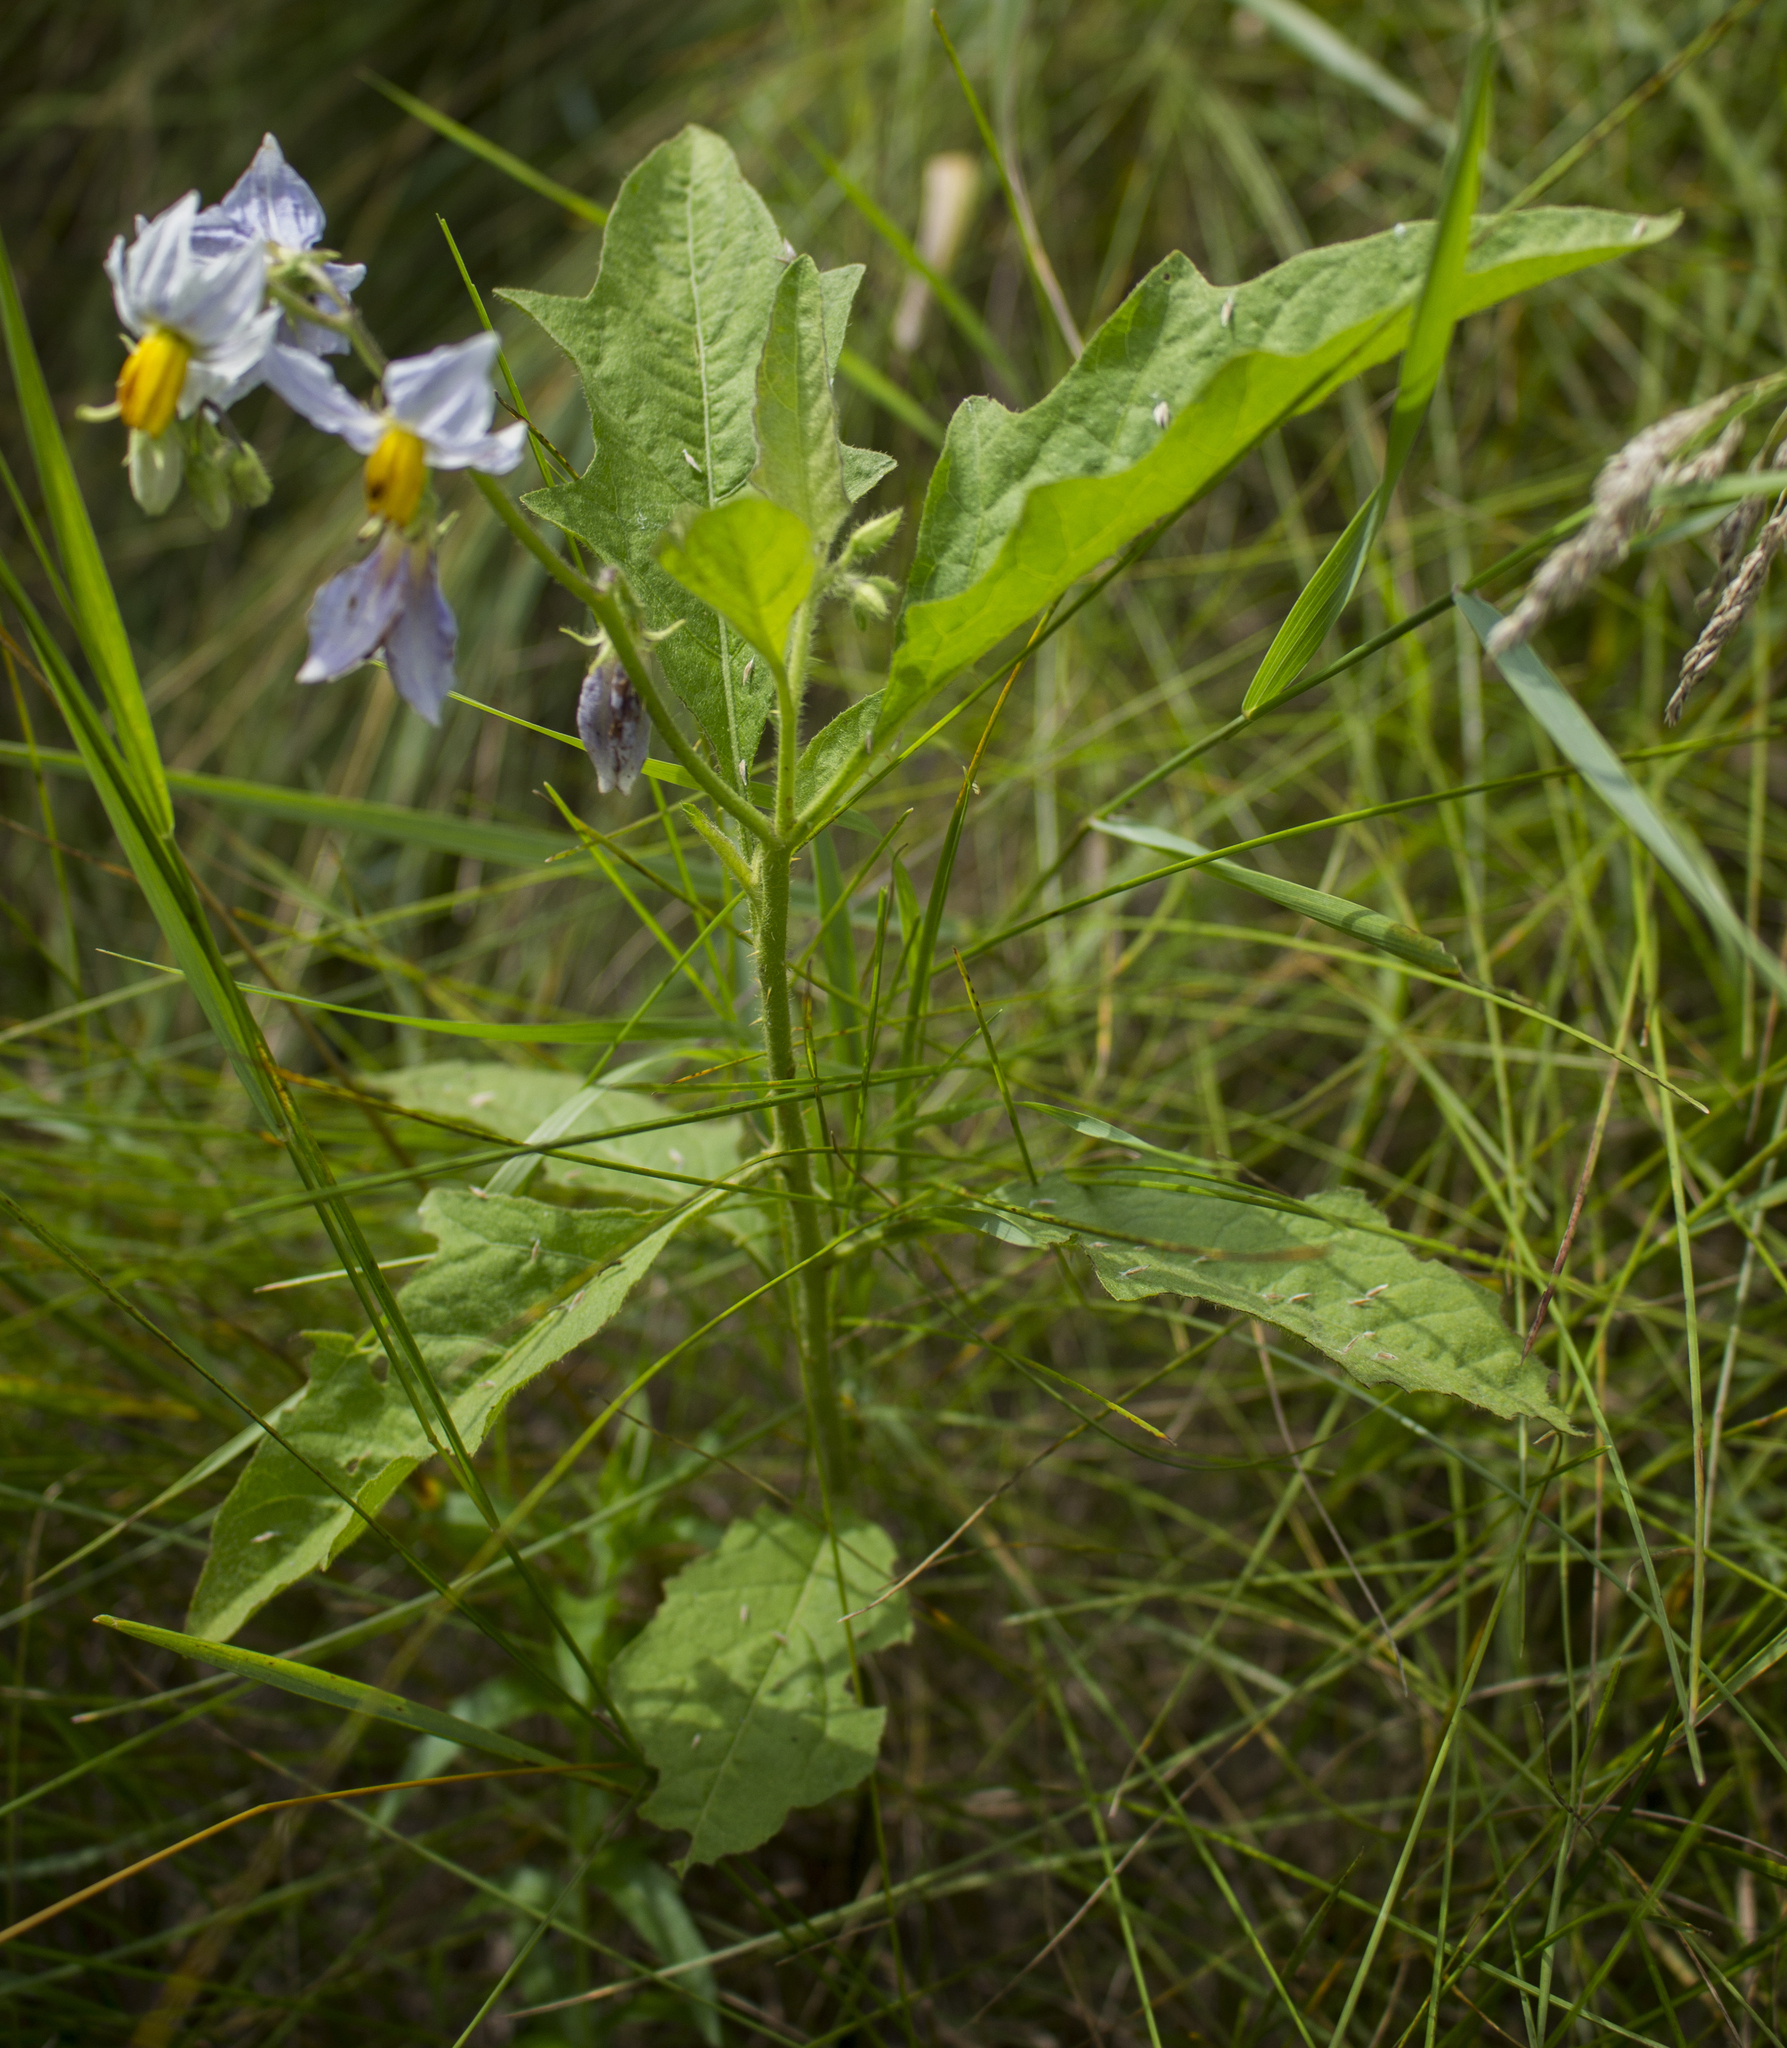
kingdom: Plantae
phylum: Tracheophyta
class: Magnoliopsida
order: Solanales
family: Solanaceae
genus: Solanum
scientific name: Solanum carolinense
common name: Horse-nettle
